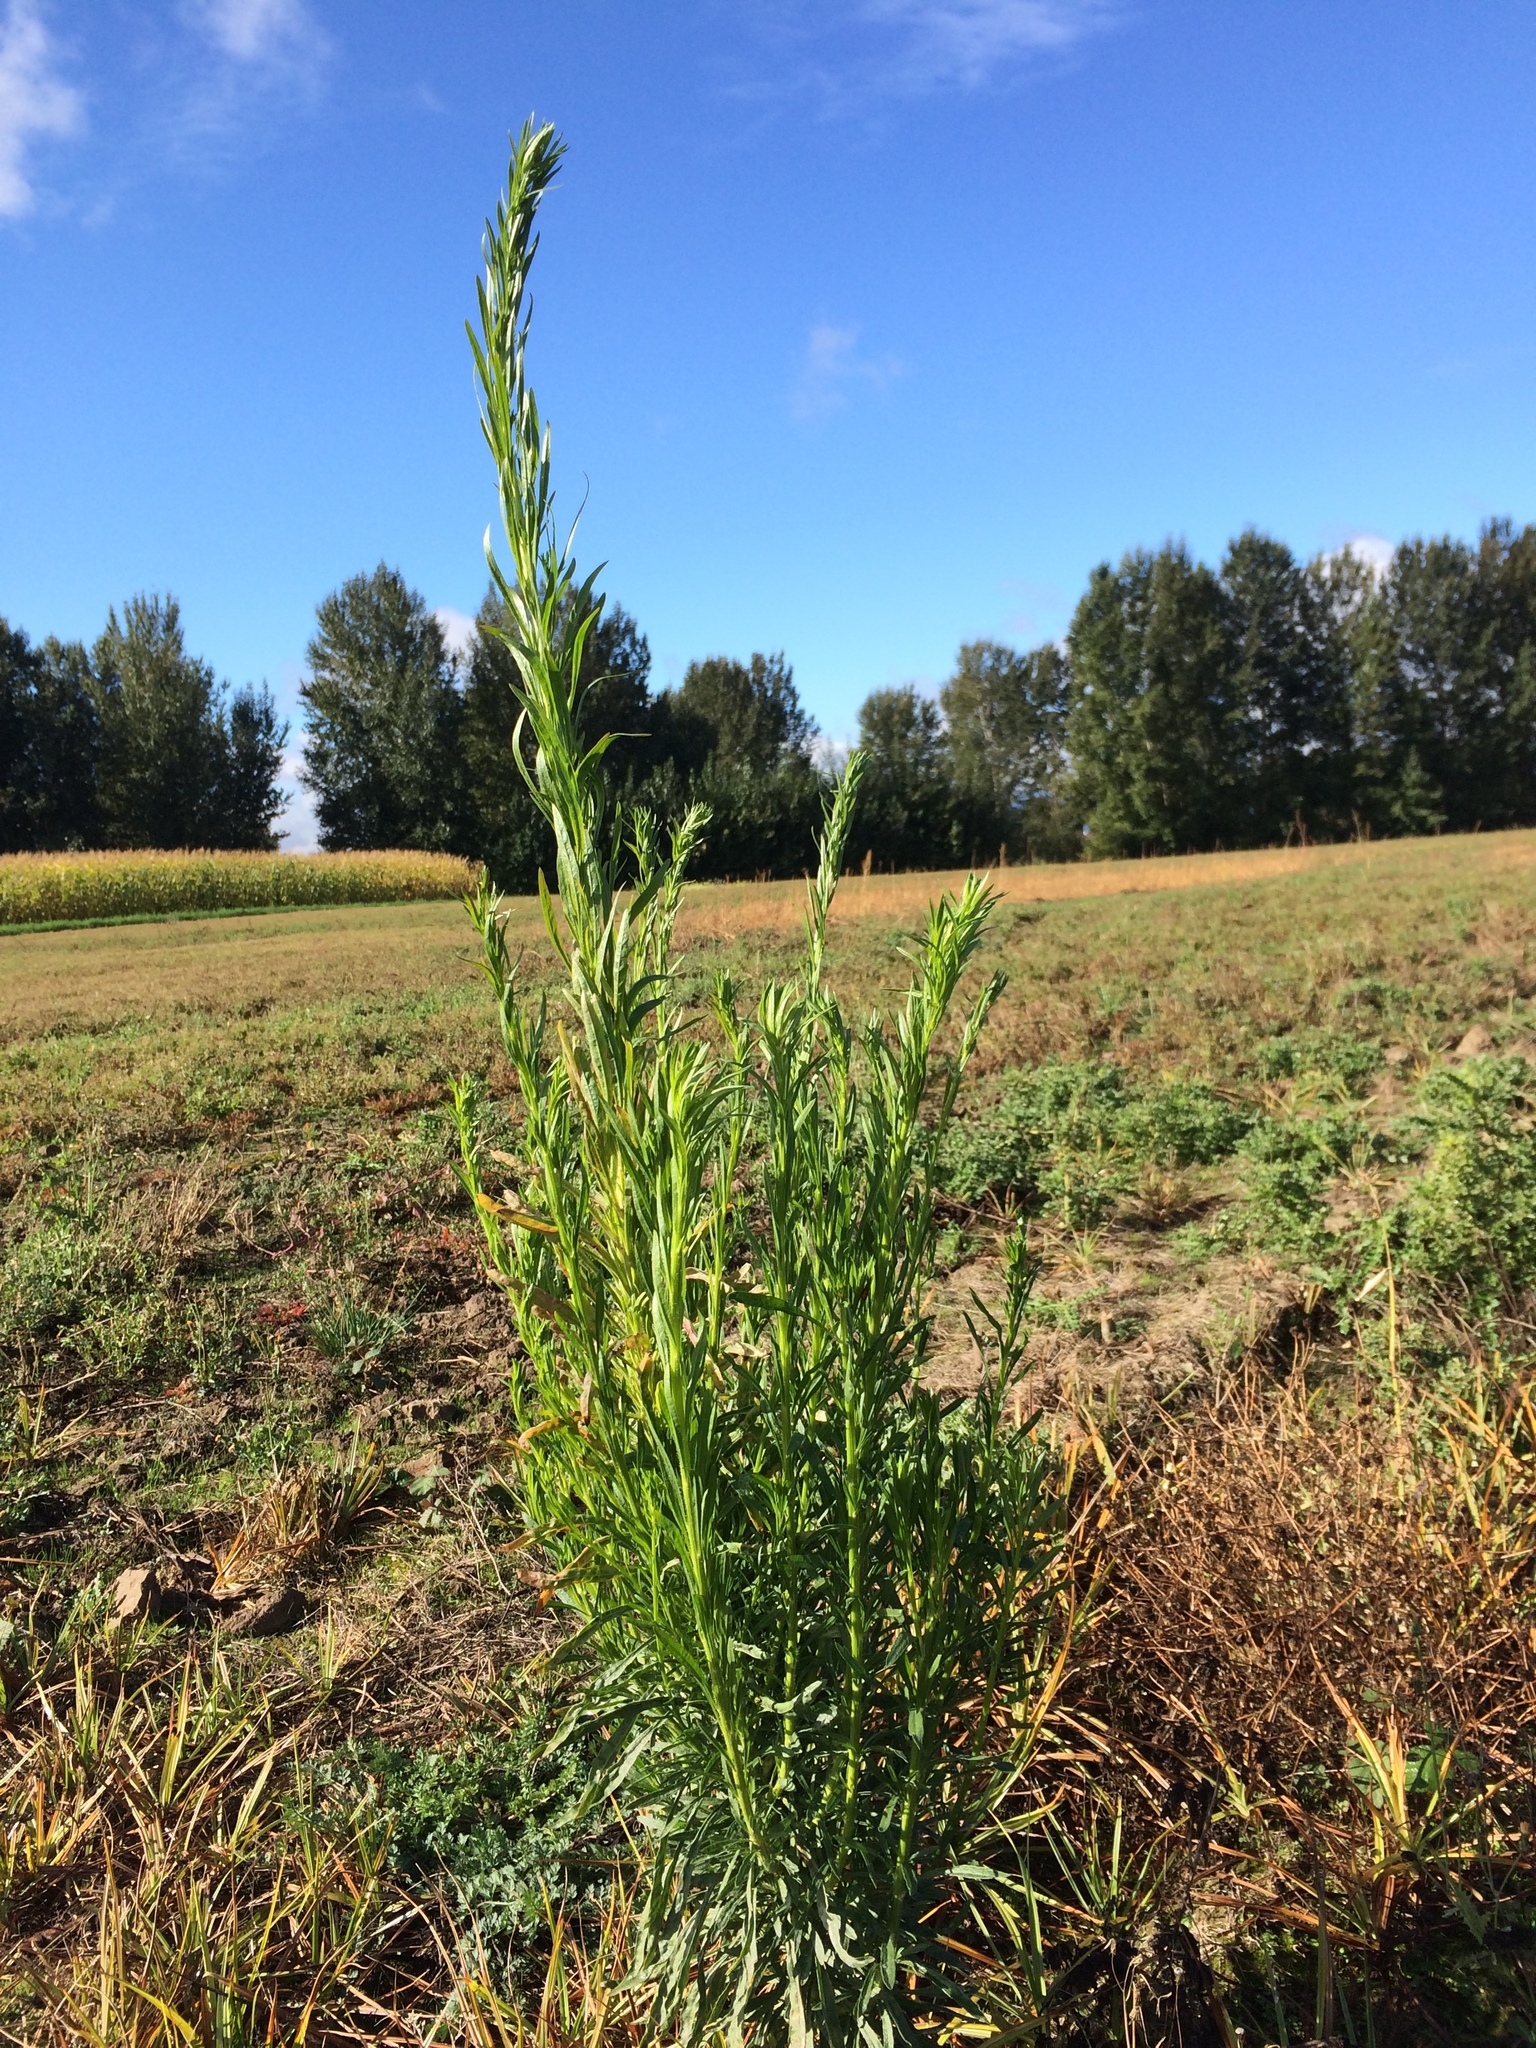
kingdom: Plantae
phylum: Tracheophyta
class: Magnoliopsida
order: Asterales
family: Asteraceae
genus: Erigeron
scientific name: Erigeron canadensis
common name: Canadian fleabane
